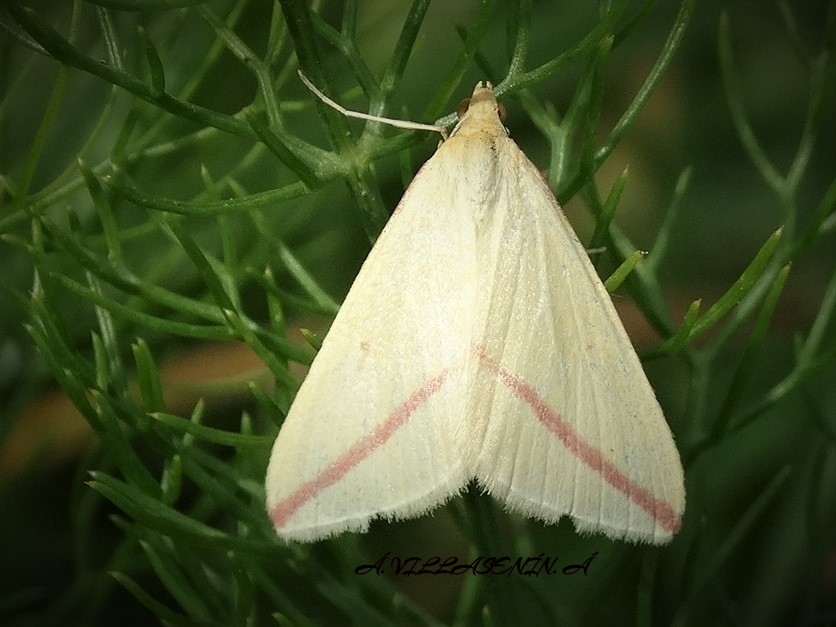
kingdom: Animalia
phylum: Arthropoda
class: Insecta
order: Lepidoptera
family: Geometridae
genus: Rhodometra
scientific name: Rhodometra sacraria
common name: Vestal
